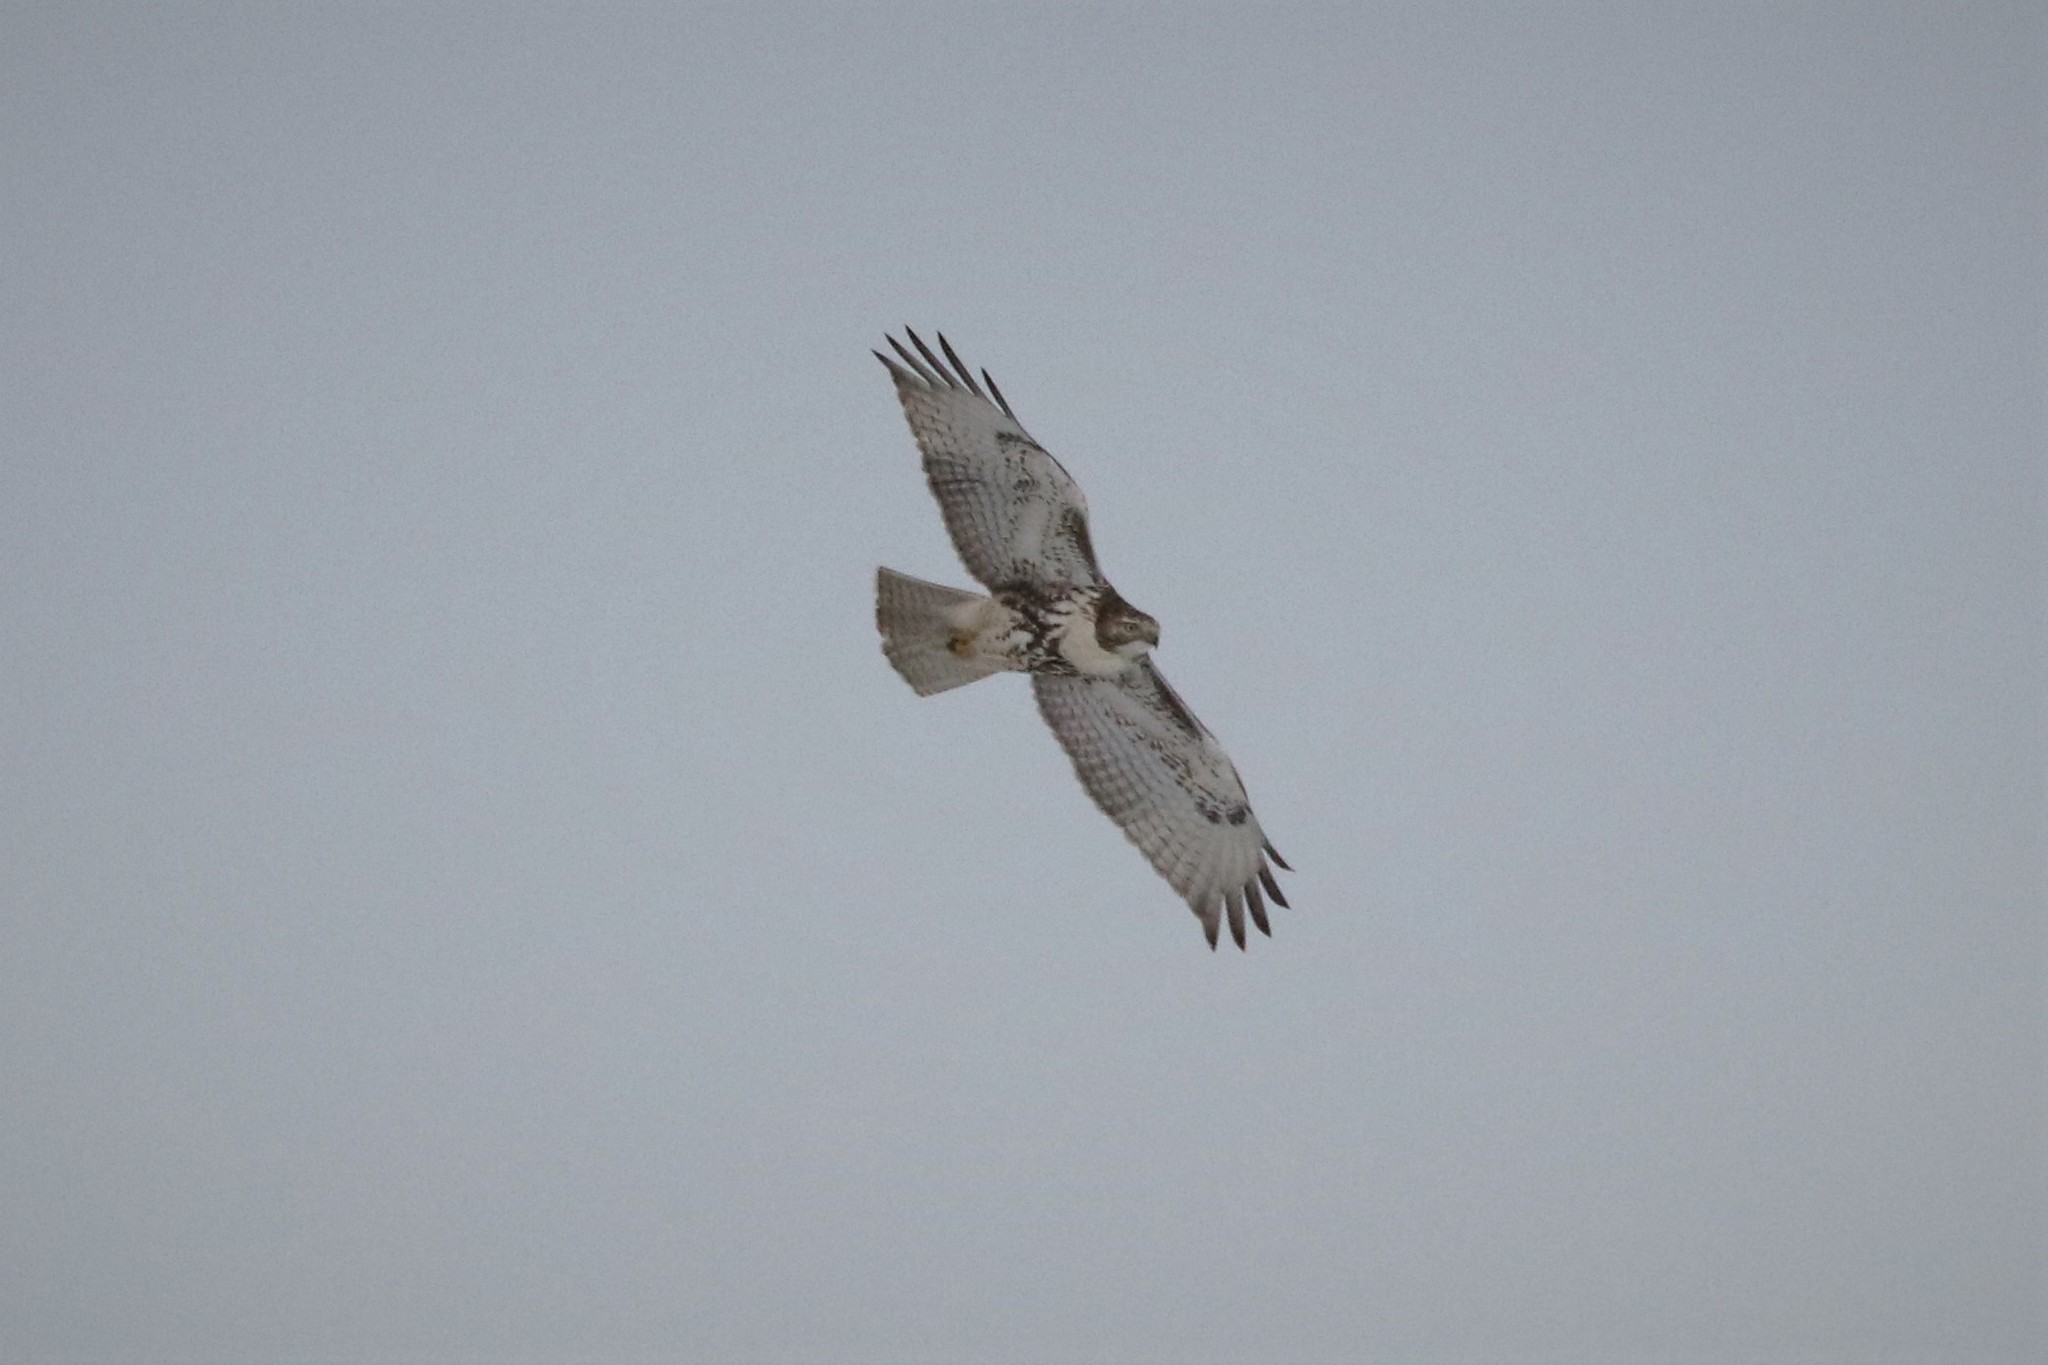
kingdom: Animalia
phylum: Chordata
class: Aves
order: Accipitriformes
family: Accipitridae
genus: Buteo
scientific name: Buteo jamaicensis
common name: Red-tailed hawk
